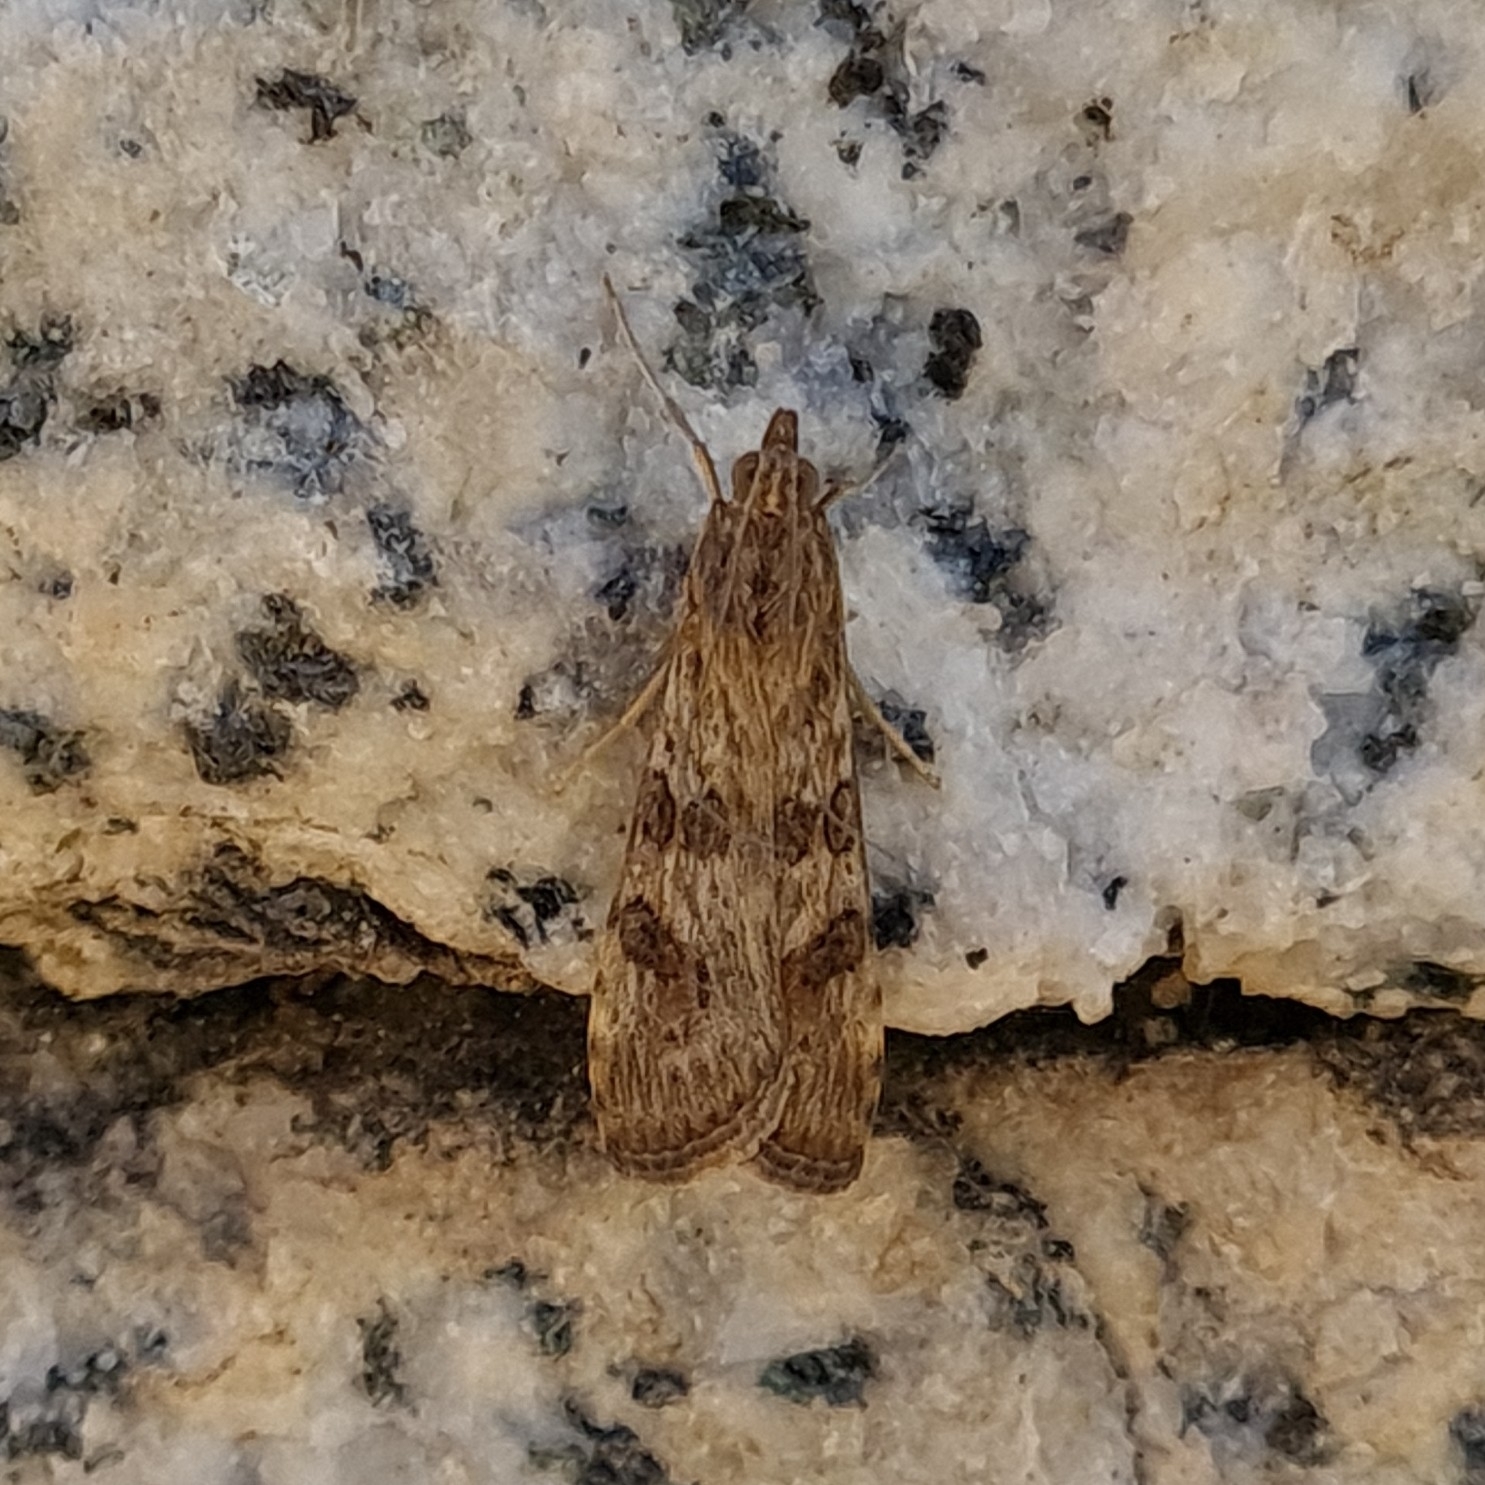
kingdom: Animalia
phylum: Arthropoda
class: Insecta
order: Lepidoptera
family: Crambidae
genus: Nomophila
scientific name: Nomophila noctuella
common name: Rush veneer
